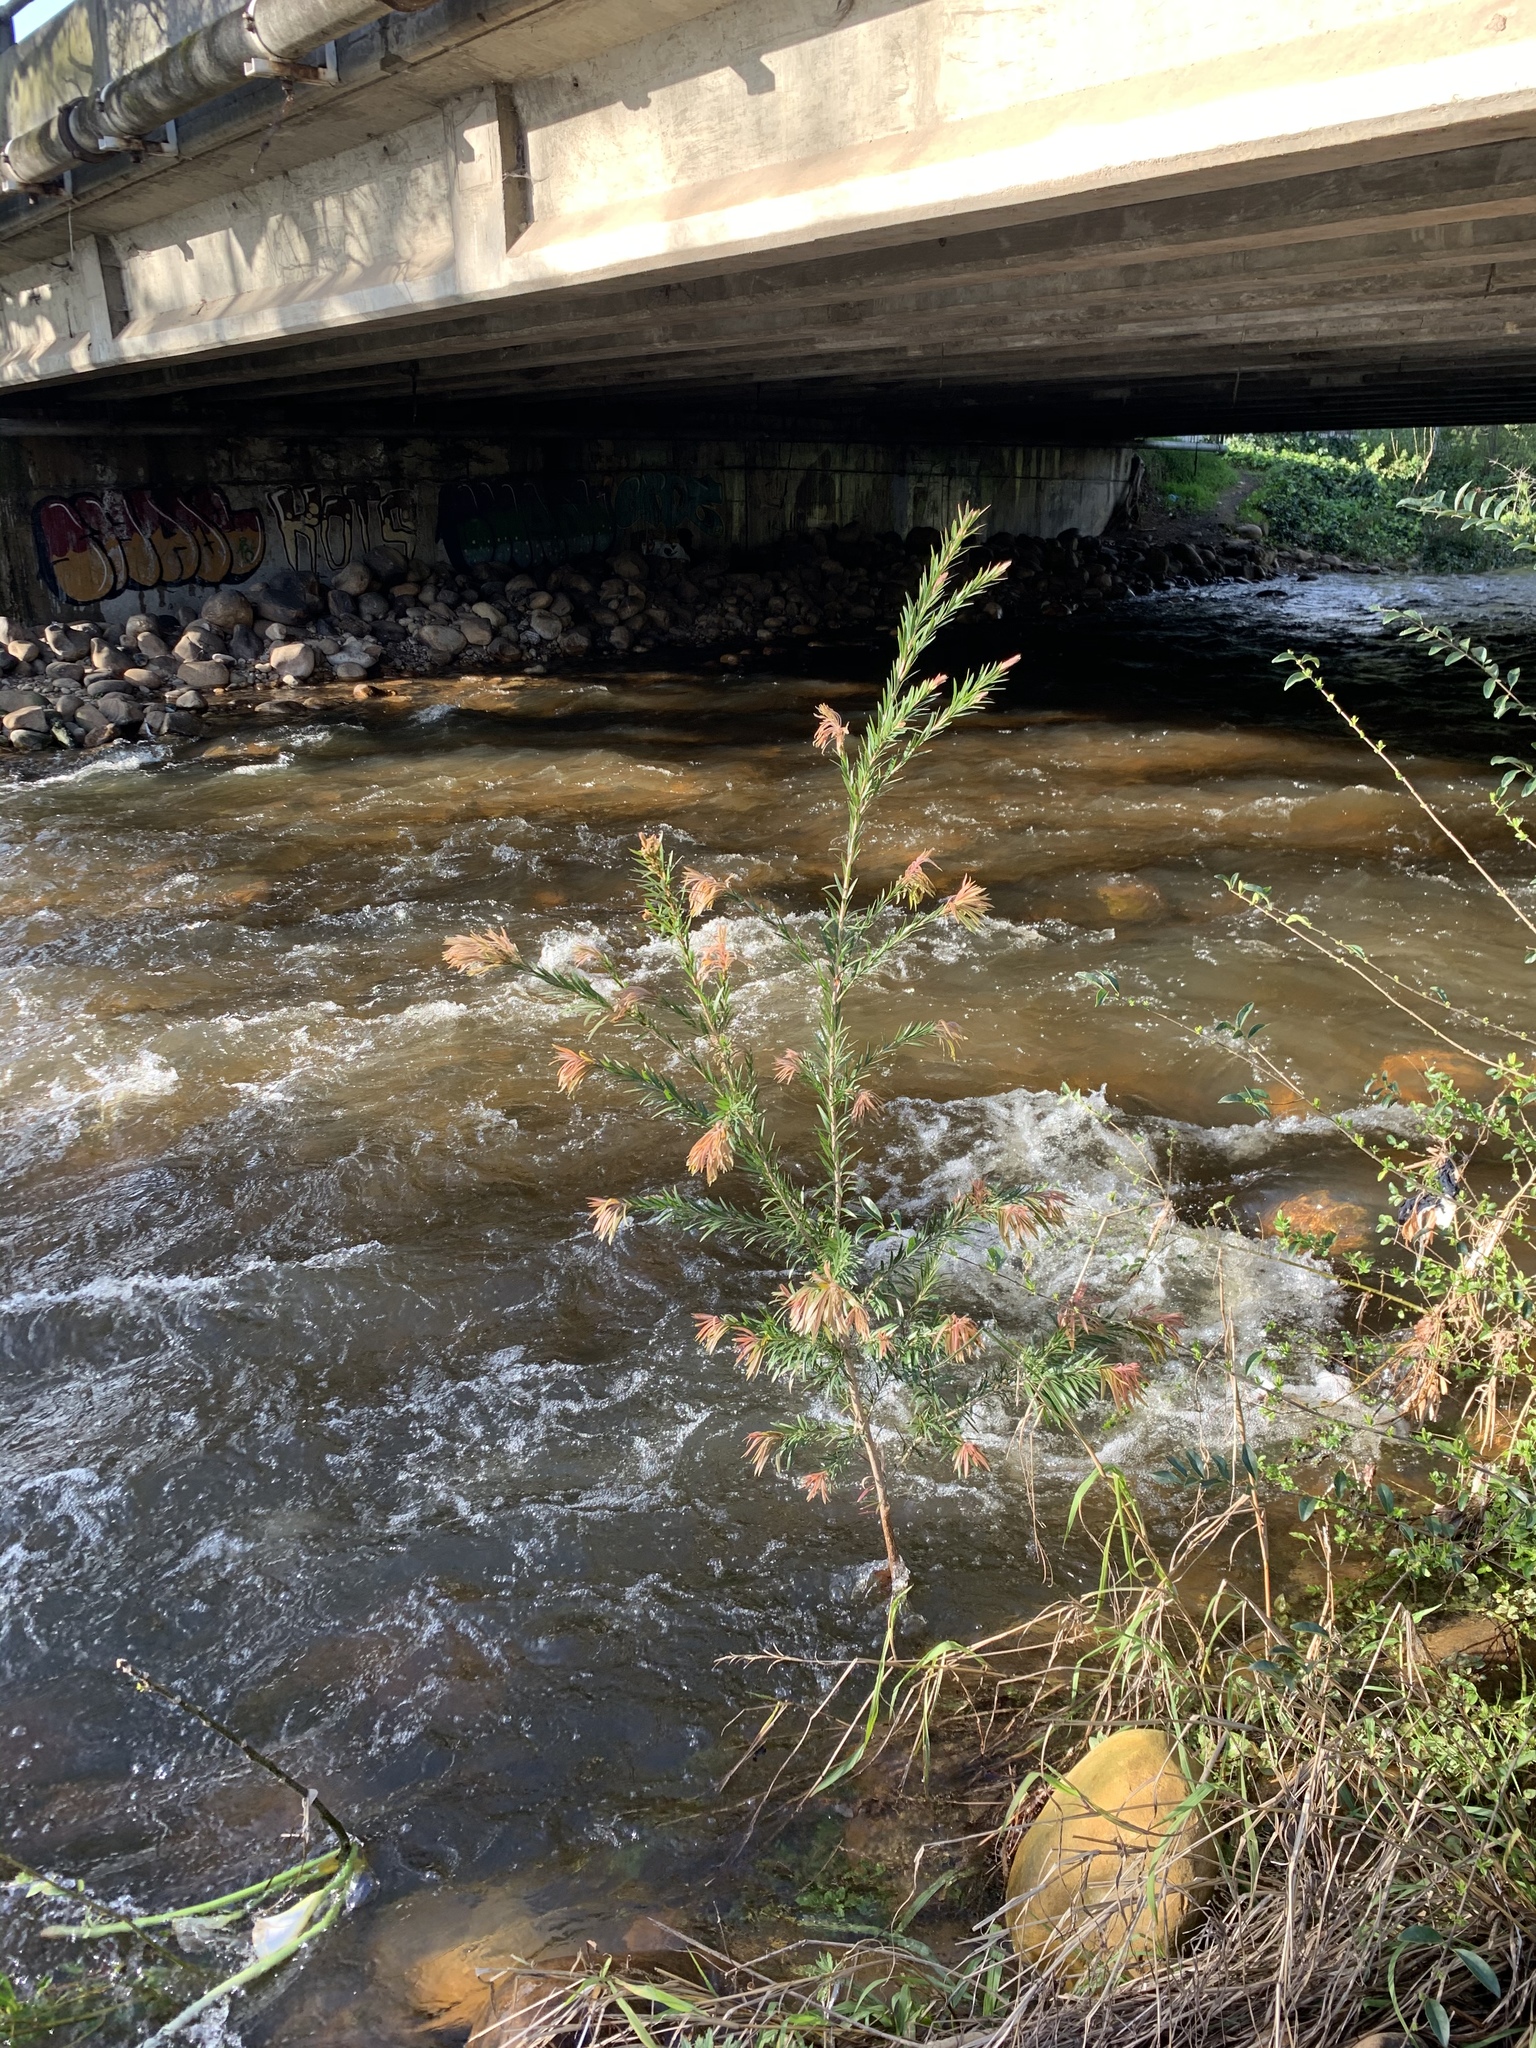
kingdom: Plantae
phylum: Tracheophyta
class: Magnoliopsida
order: Myrtales
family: Myrtaceae
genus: Callistemon
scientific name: Callistemon viminalis
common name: Drooping bottlebrush
